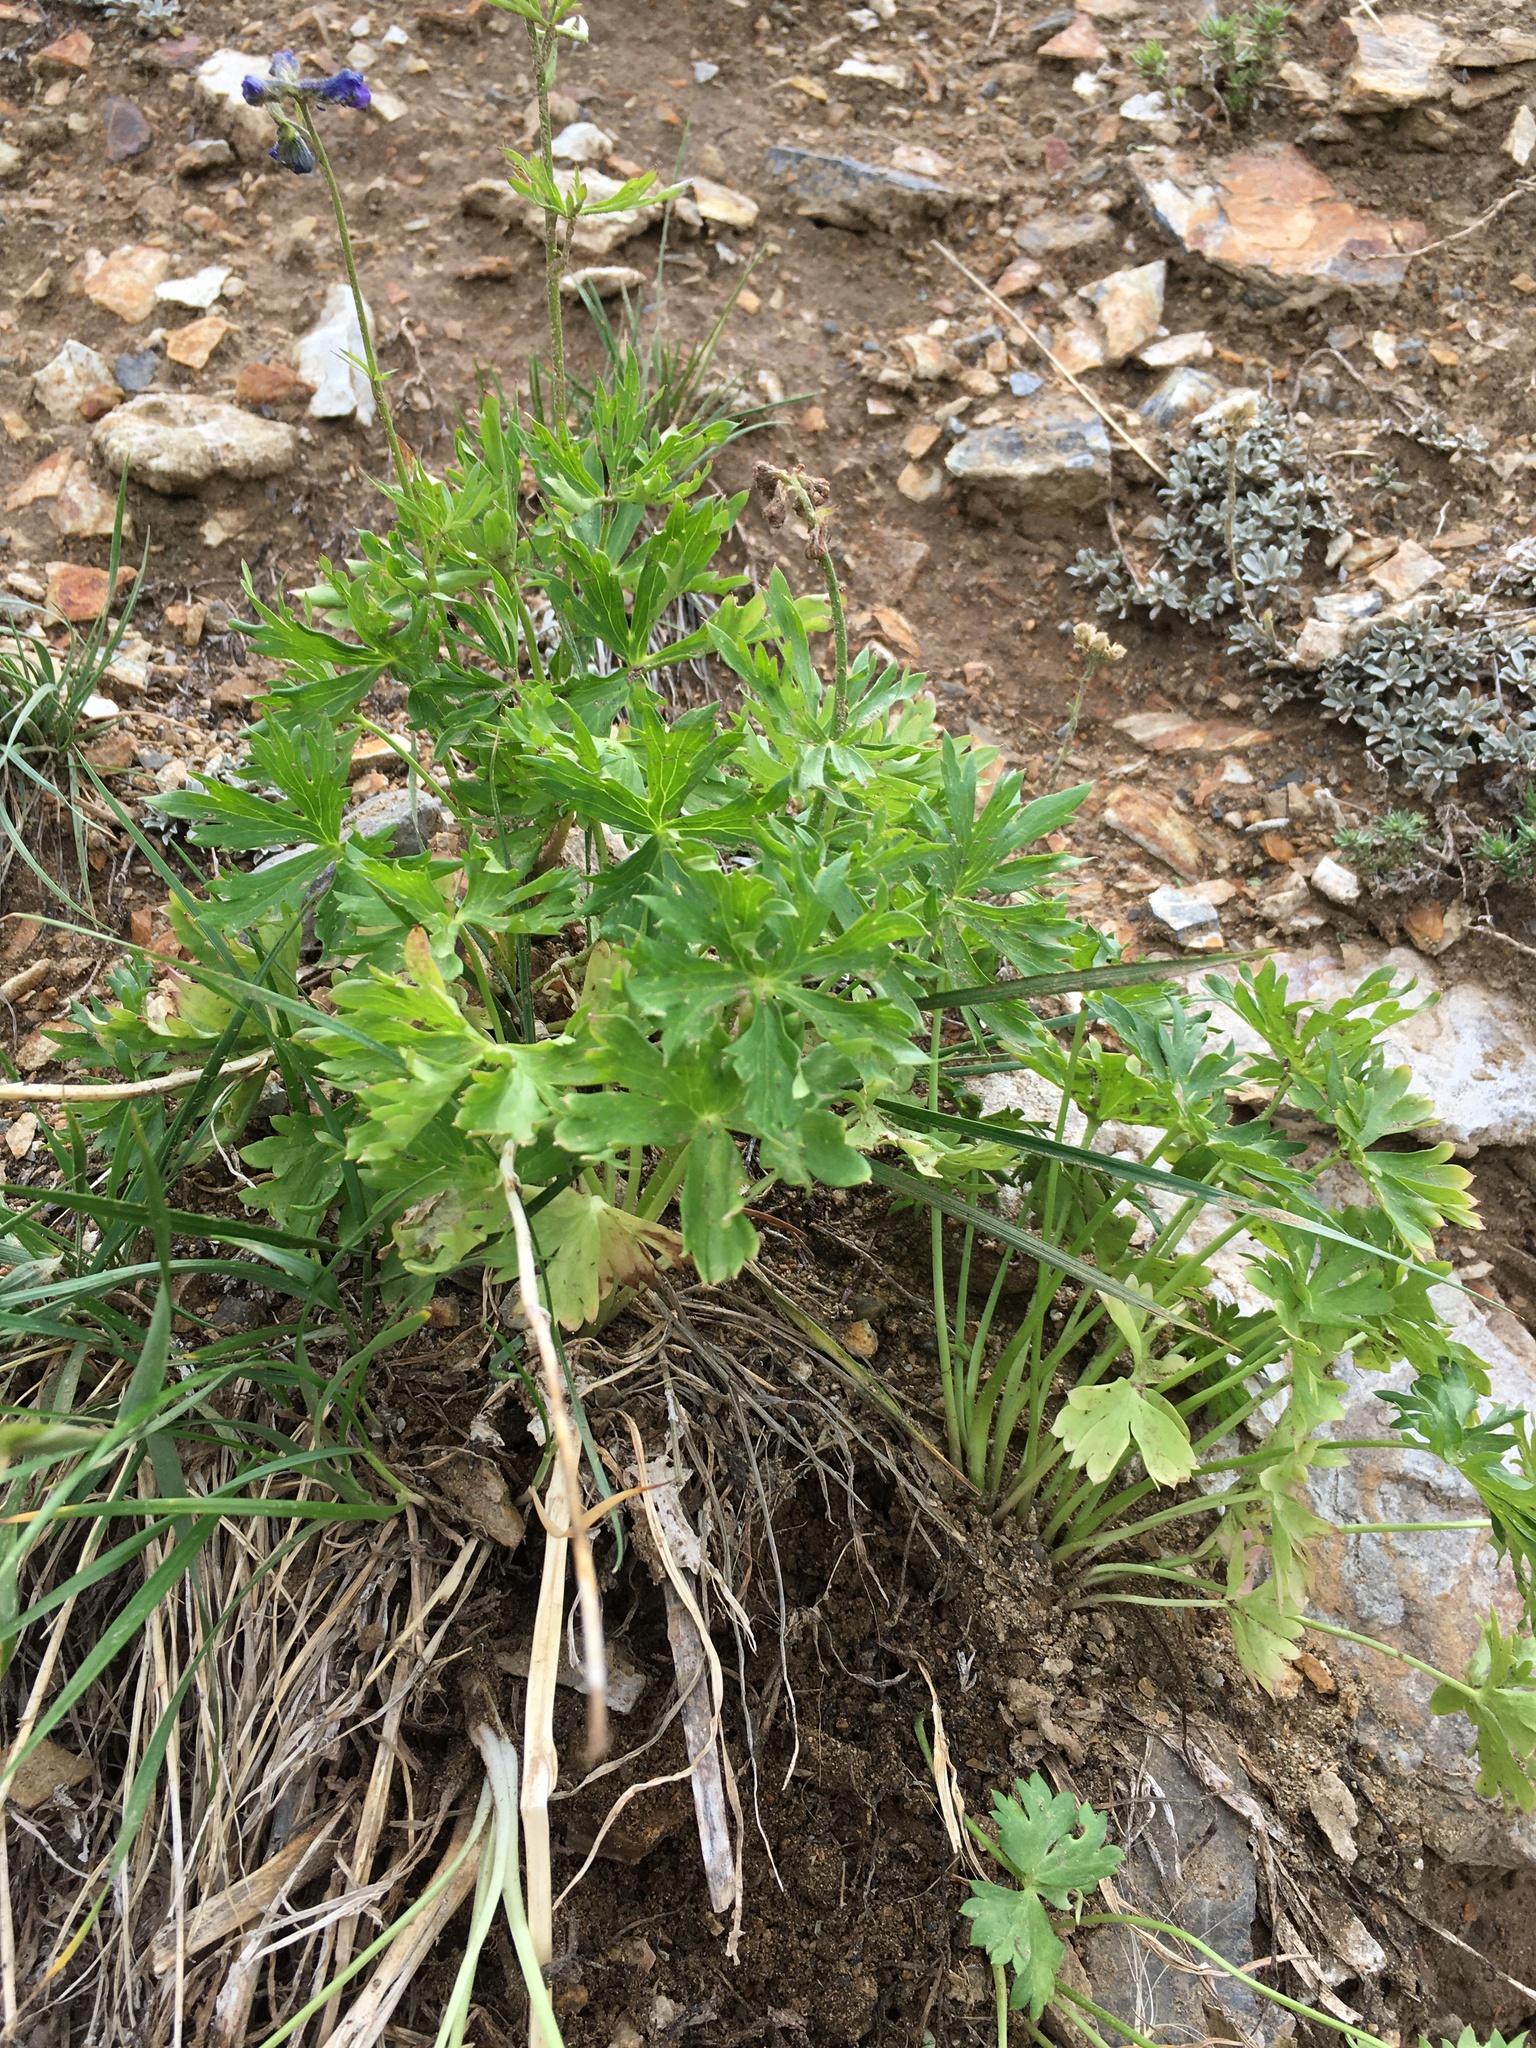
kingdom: Plantae
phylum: Tracheophyta
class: Magnoliopsida
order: Ranunculales
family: Ranunculaceae
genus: Delphinium
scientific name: Delphinium polycladon
